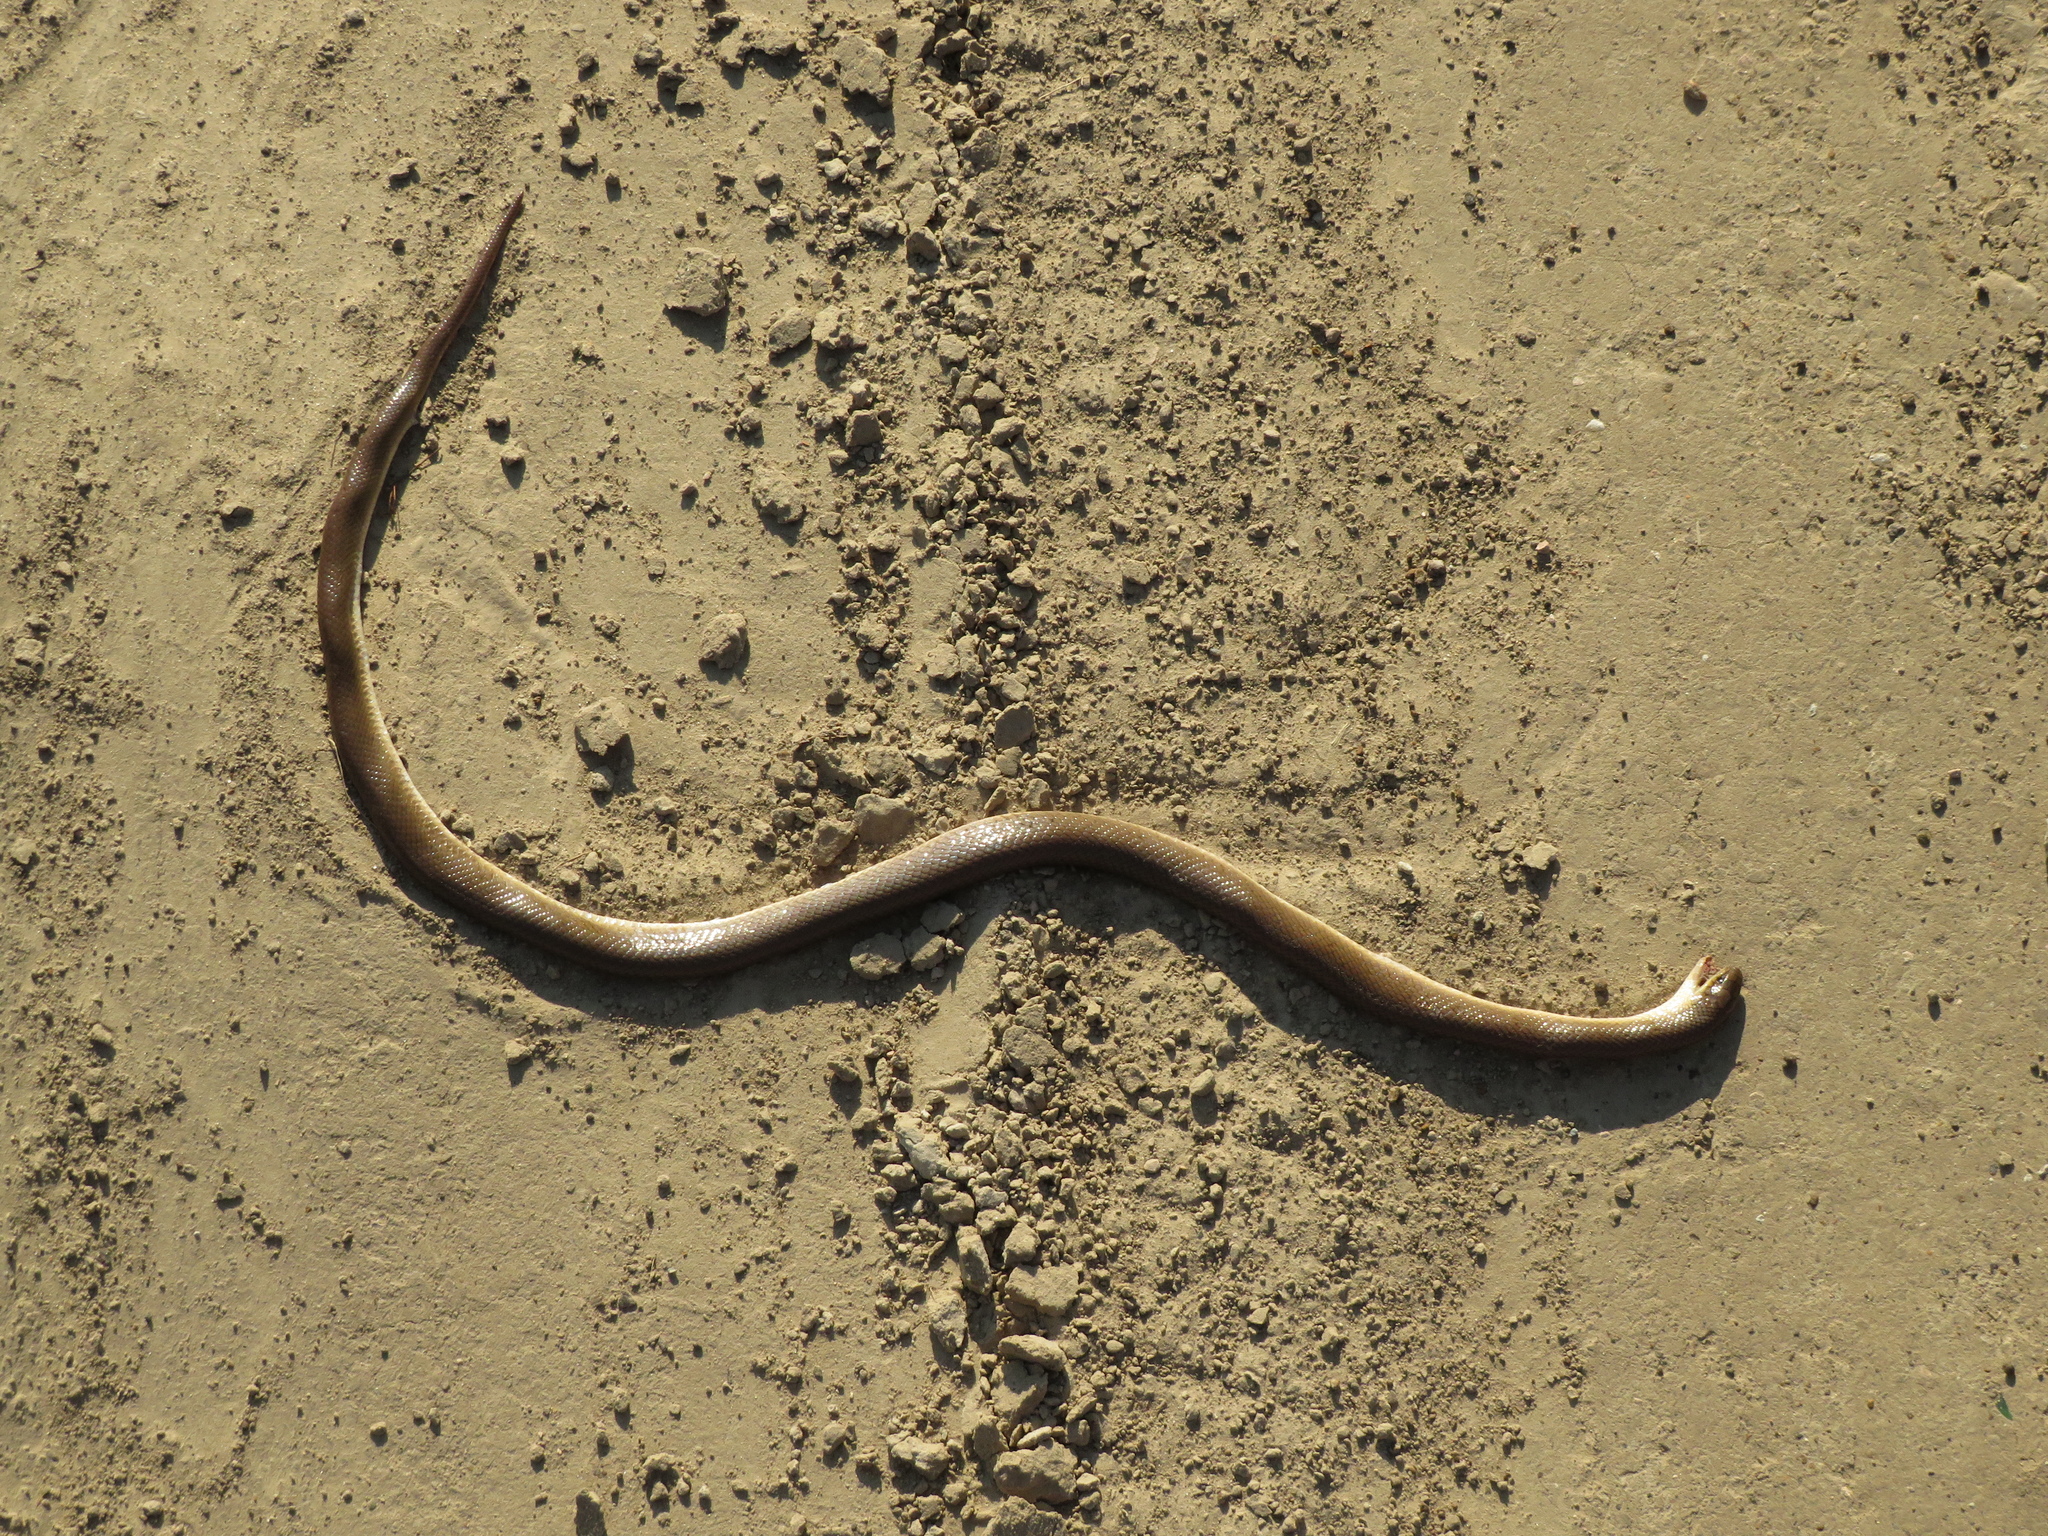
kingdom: Animalia
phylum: Chordata
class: Squamata
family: Colubridae
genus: Paraphimophis
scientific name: Paraphimophis rusticus
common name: Culebra
